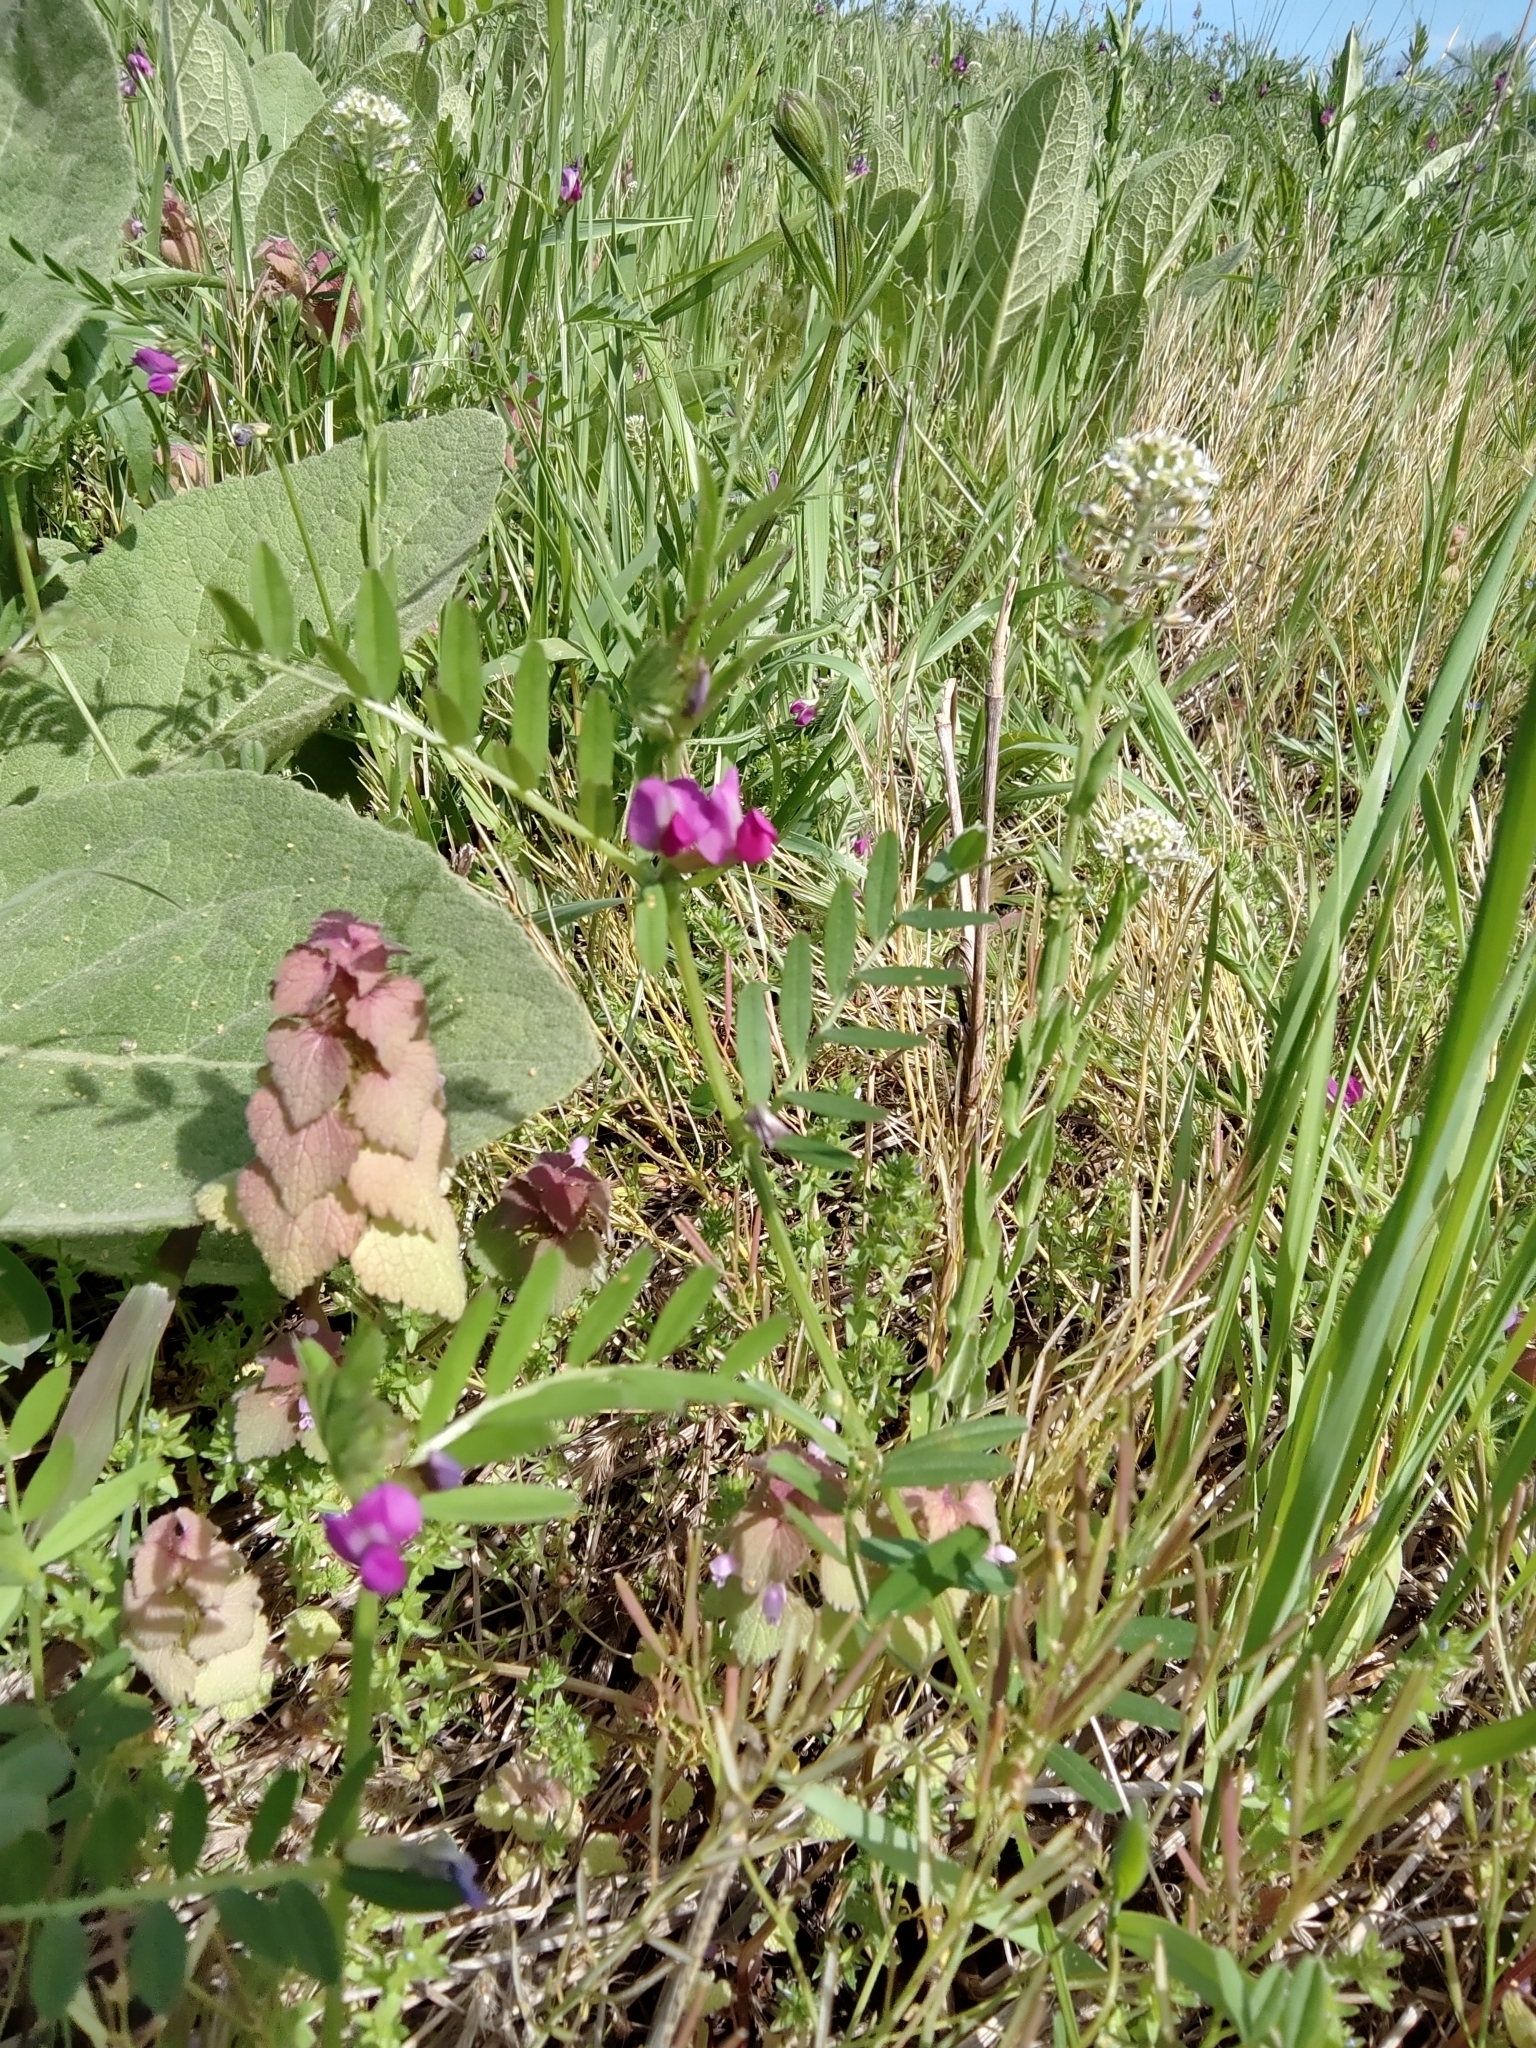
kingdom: Plantae
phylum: Tracheophyta
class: Magnoliopsida
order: Fabales
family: Fabaceae
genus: Vicia
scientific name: Vicia sativa
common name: Garden vetch
